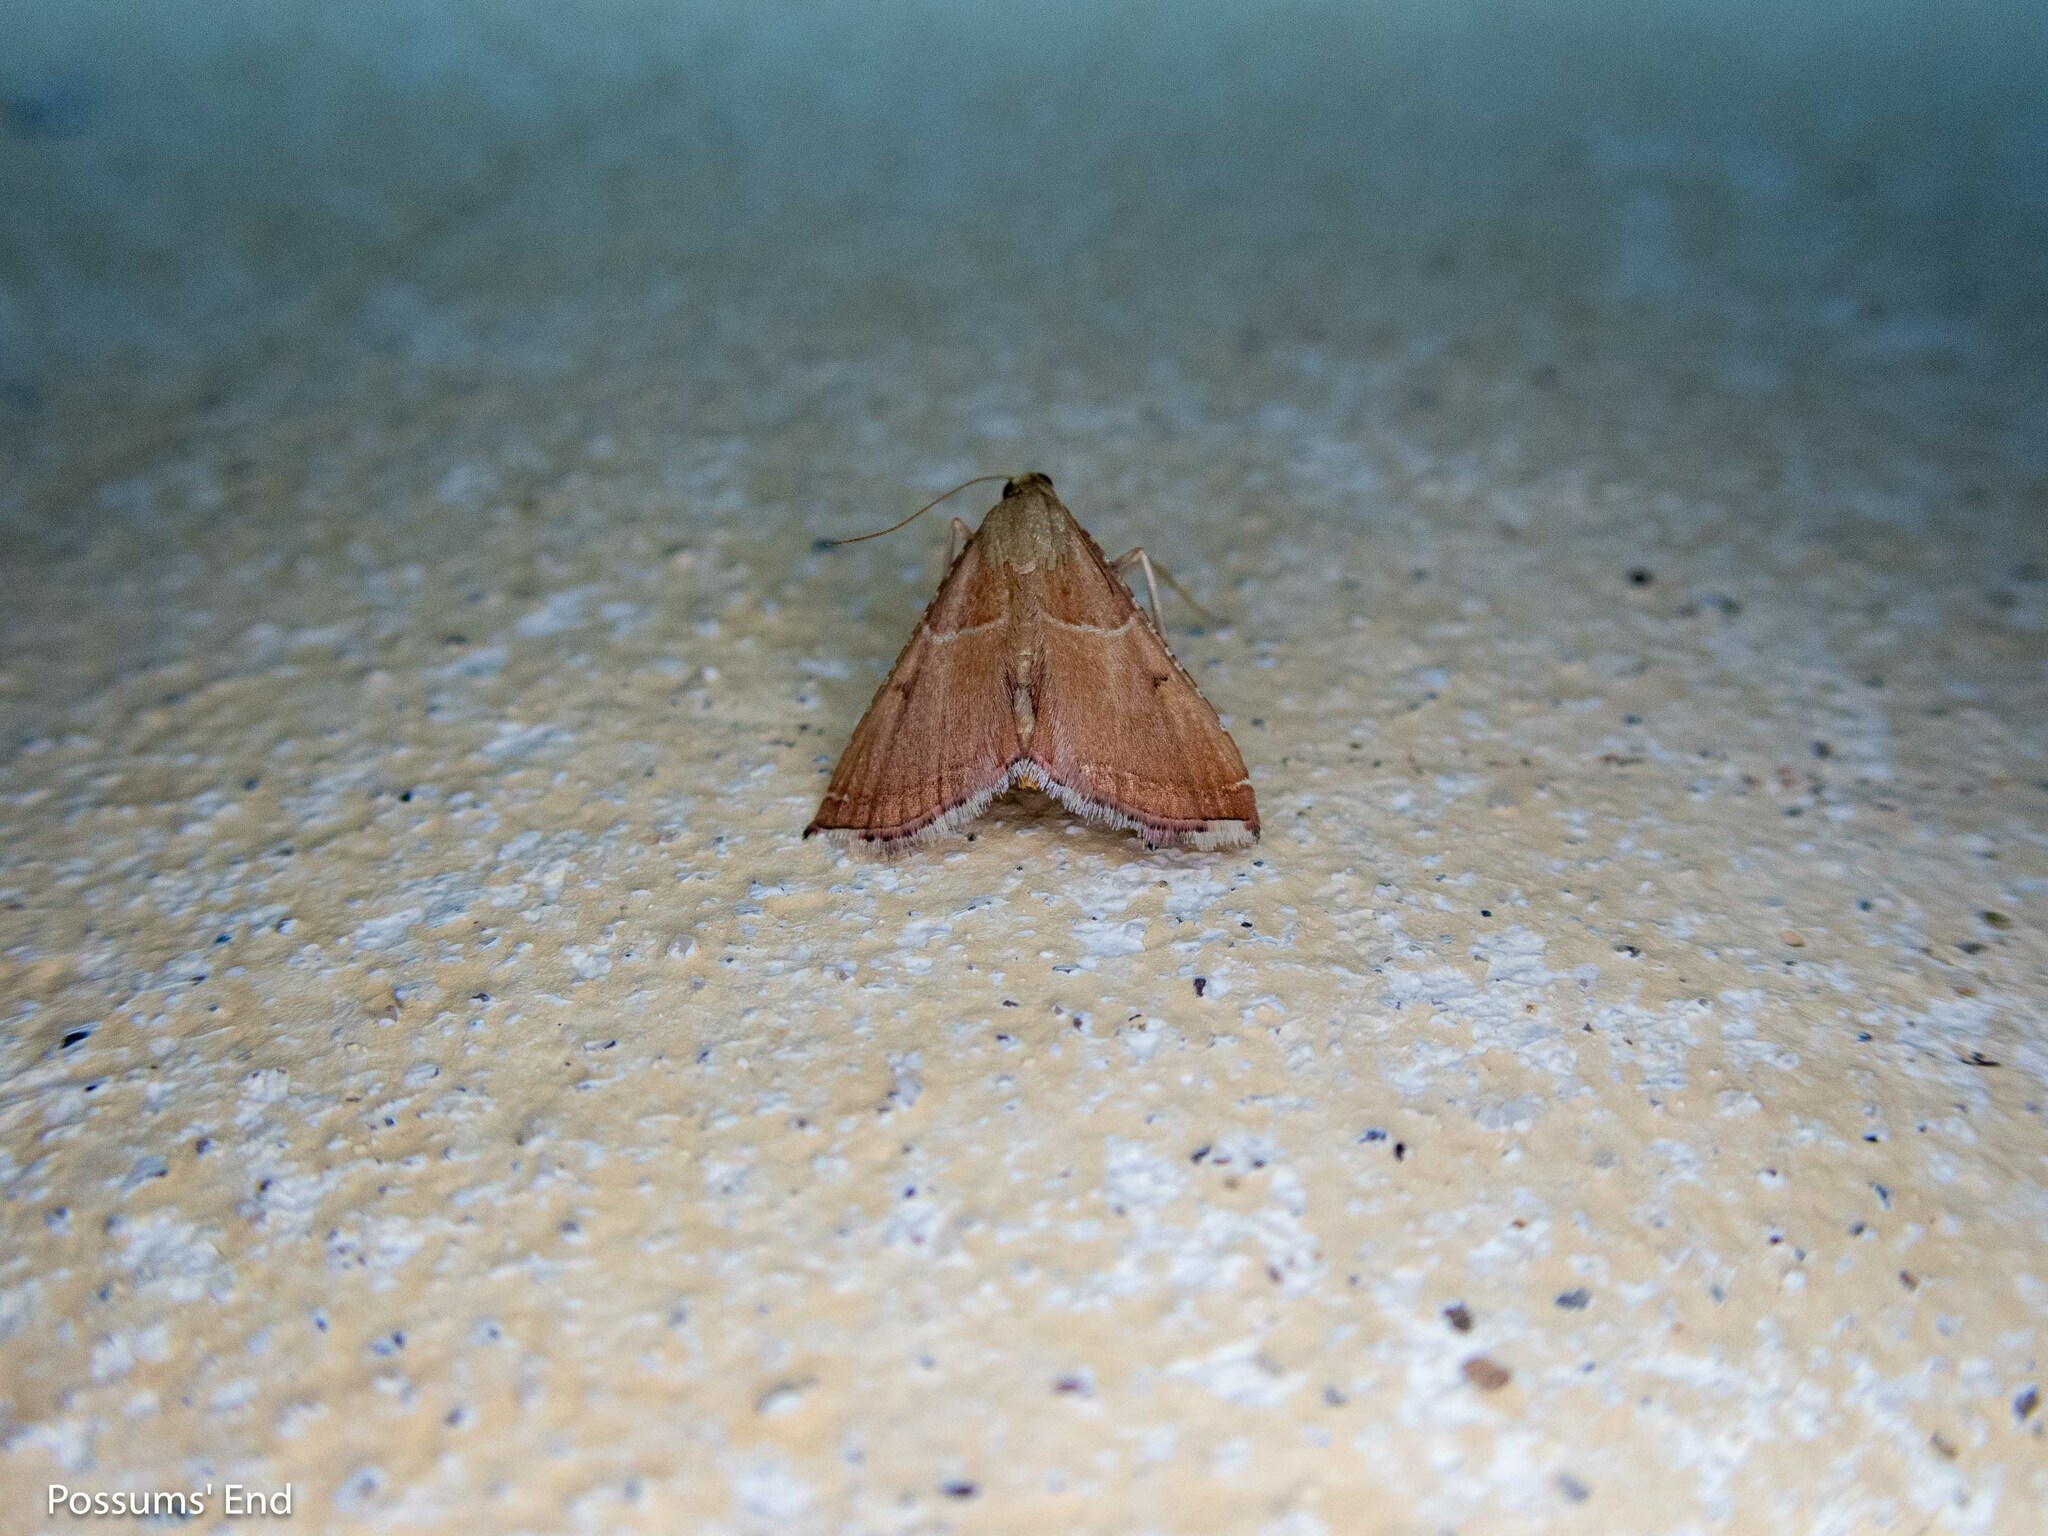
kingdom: Animalia
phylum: Arthropoda
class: Insecta
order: Lepidoptera
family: Pyralidae
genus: Endotricha
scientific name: Endotricha flammealis
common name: Rosy tabby
